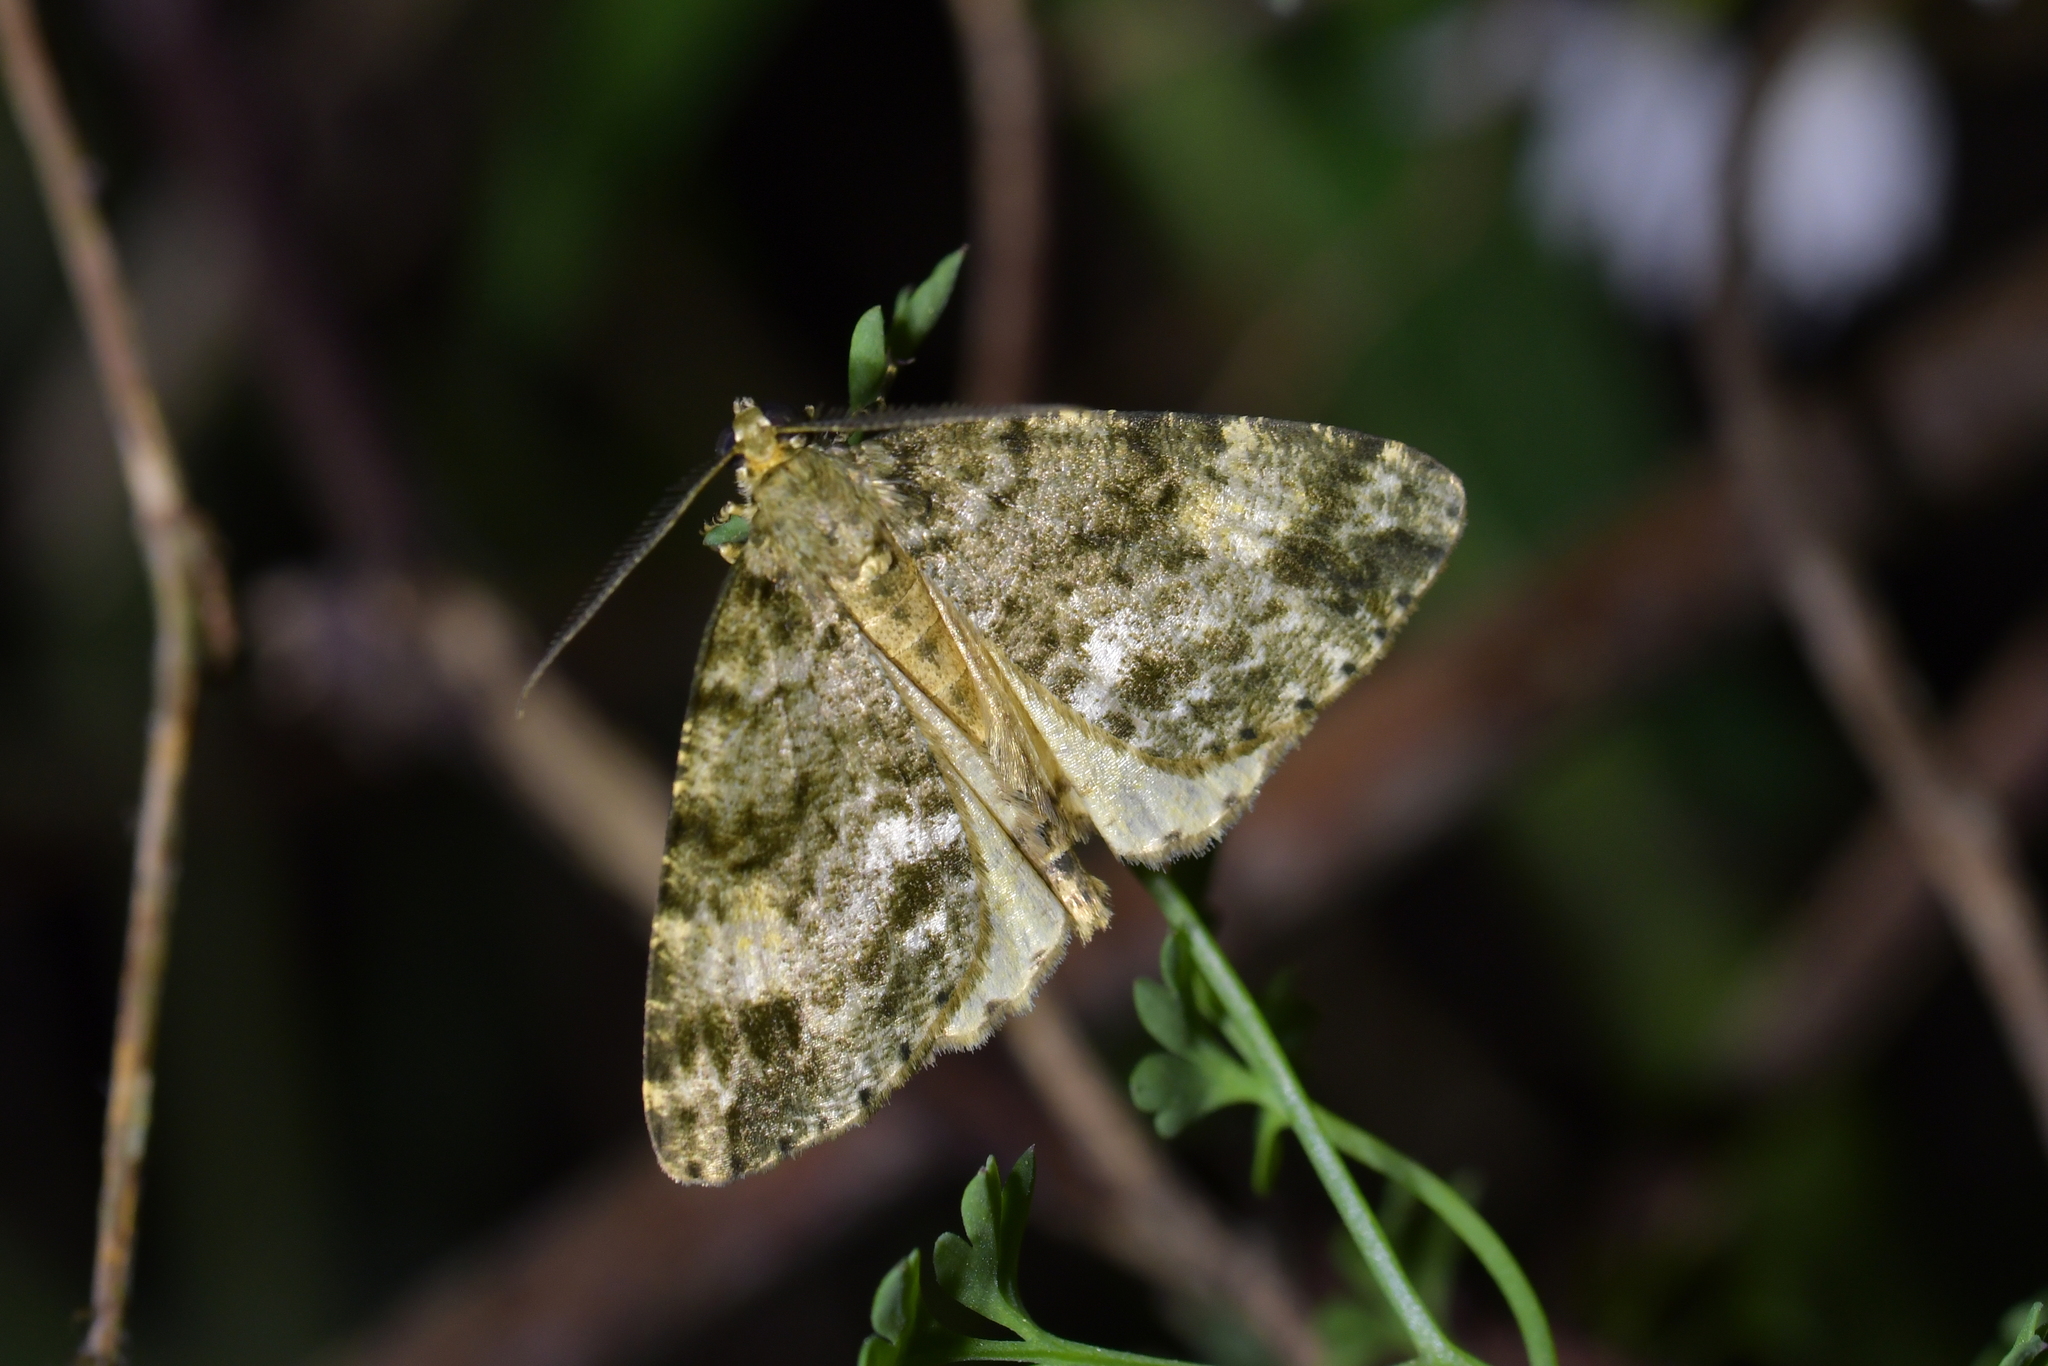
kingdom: Animalia
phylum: Arthropoda
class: Insecta
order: Lepidoptera
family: Geometridae
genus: Pseudocoremia
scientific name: Pseudocoremia indistincta
